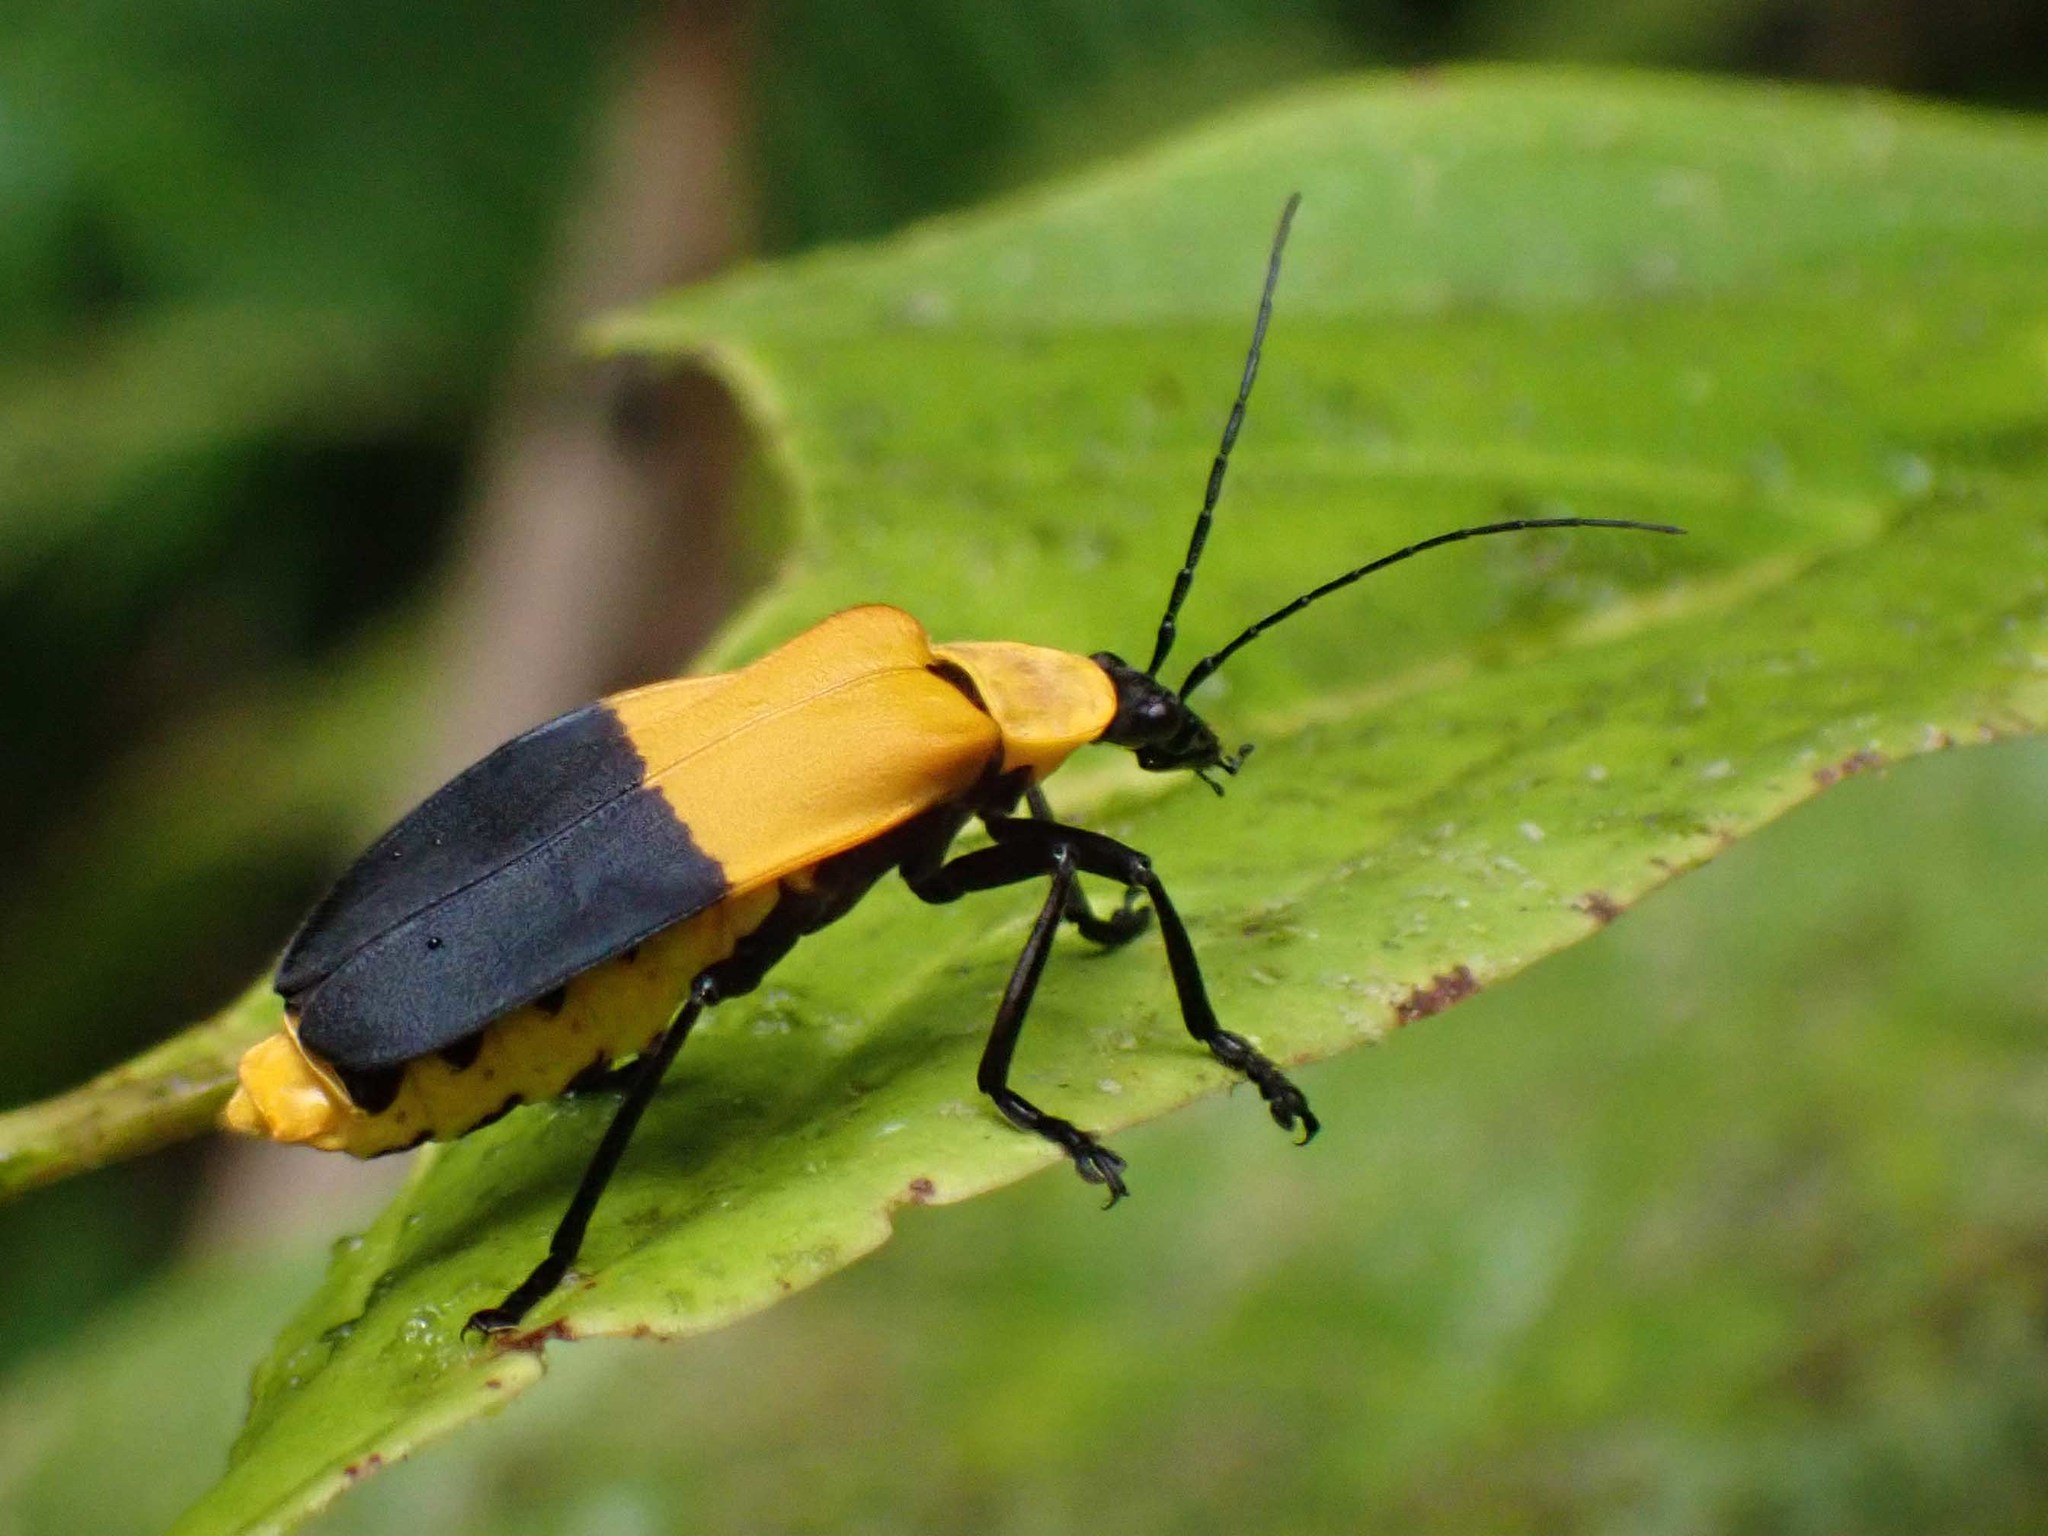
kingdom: Animalia
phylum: Arthropoda
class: Insecta
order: Coleoptera
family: Cantharidae
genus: Chauliognathus
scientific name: Chauliognathus
